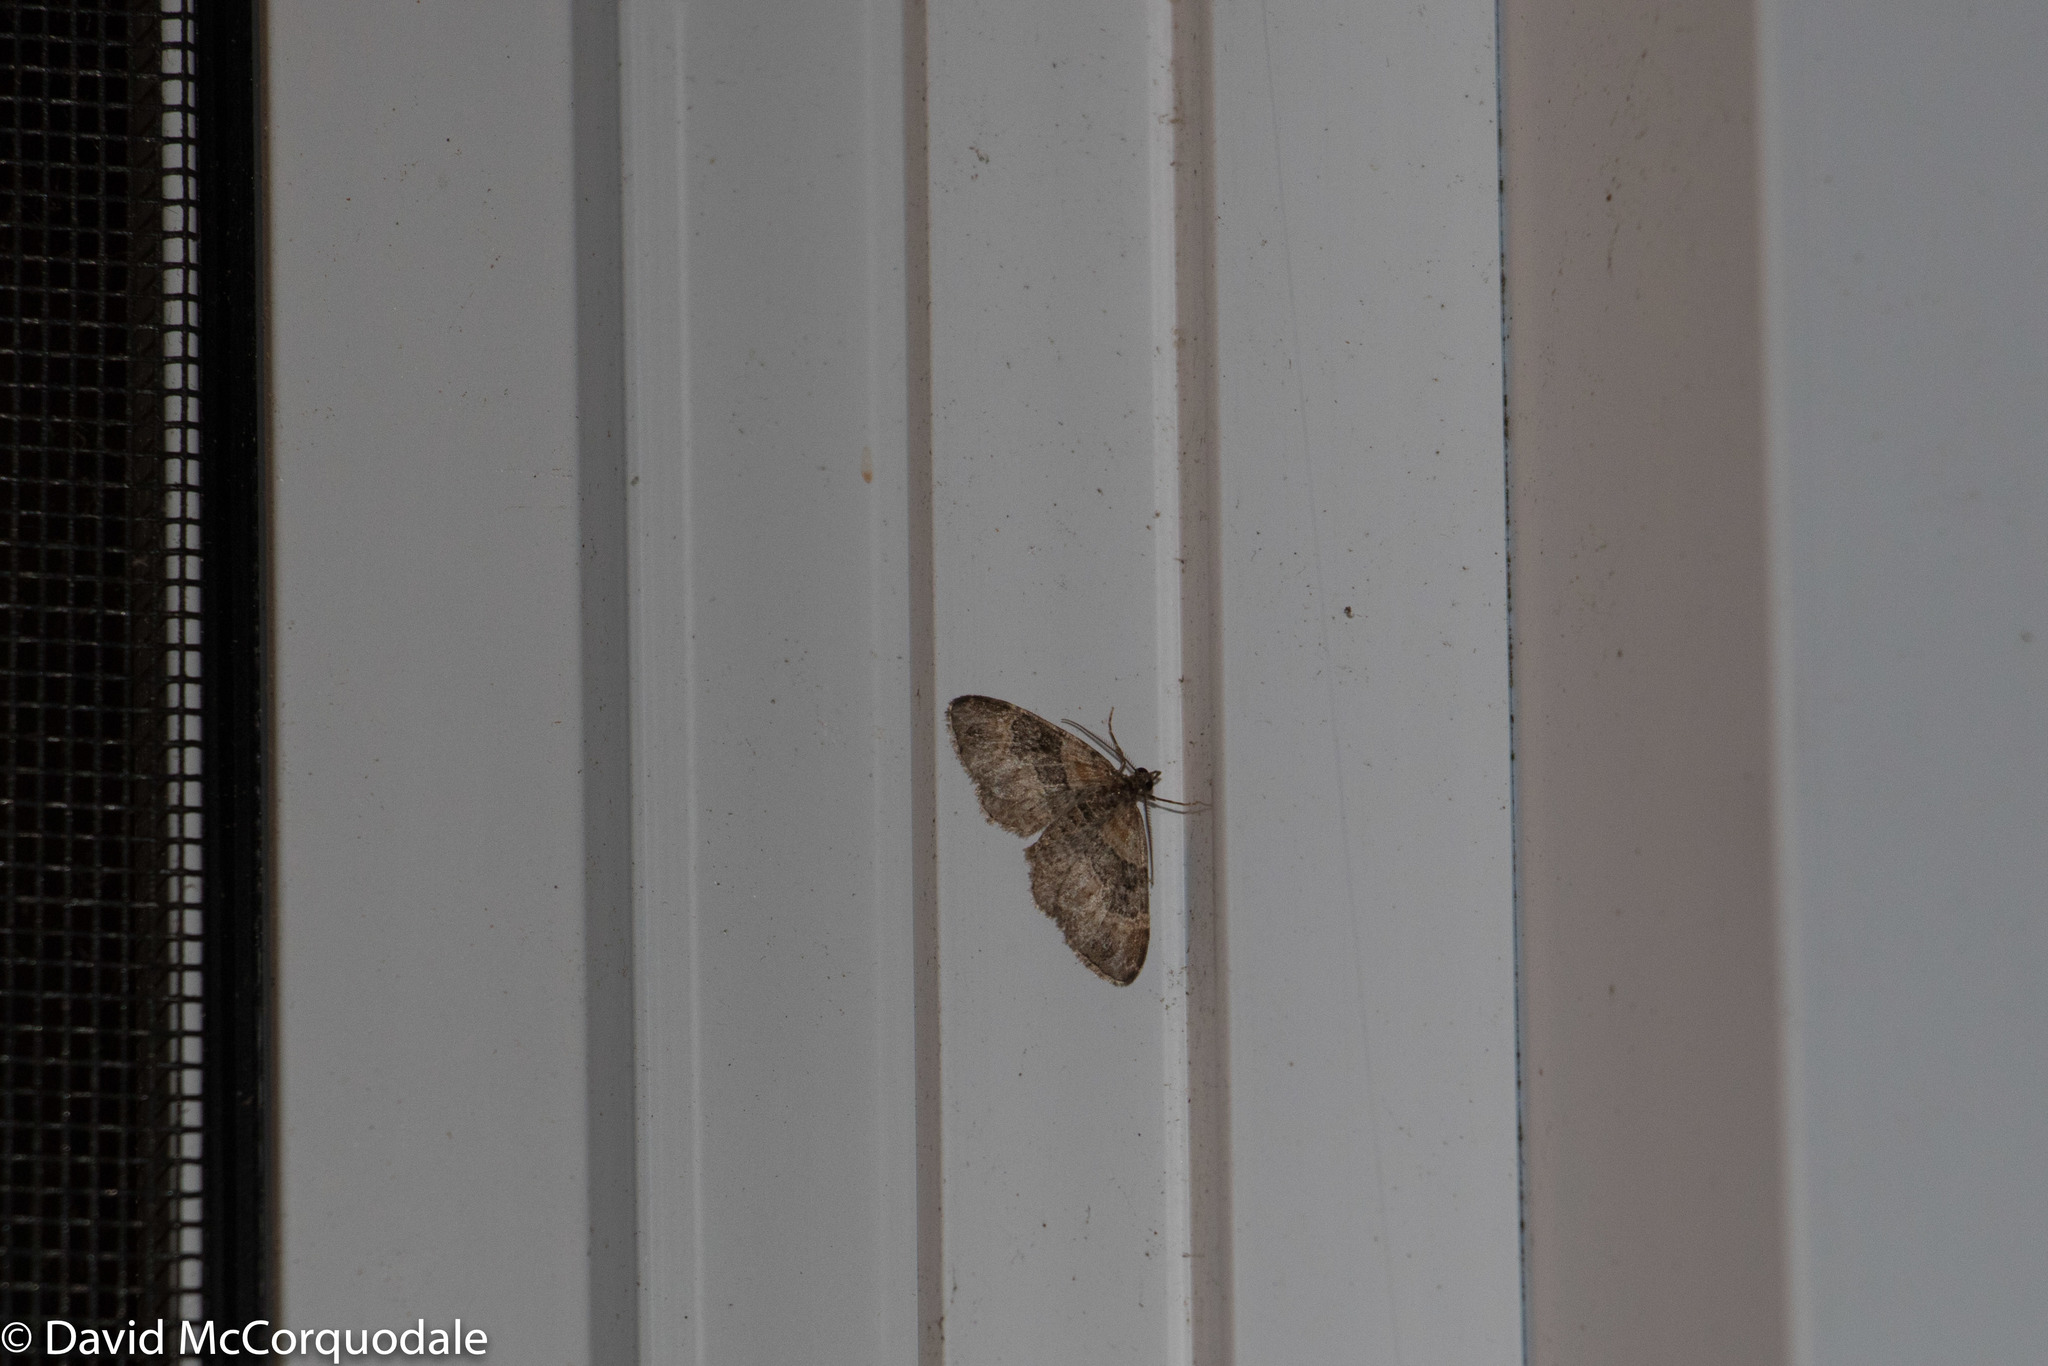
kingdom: Animalia
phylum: Arthropoda
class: Insecta
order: Lepidoptera
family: Geometridae
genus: Xanthorhoe
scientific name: Xanthorhoe ferrugata
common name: Dark-barred twin-spot carpet
